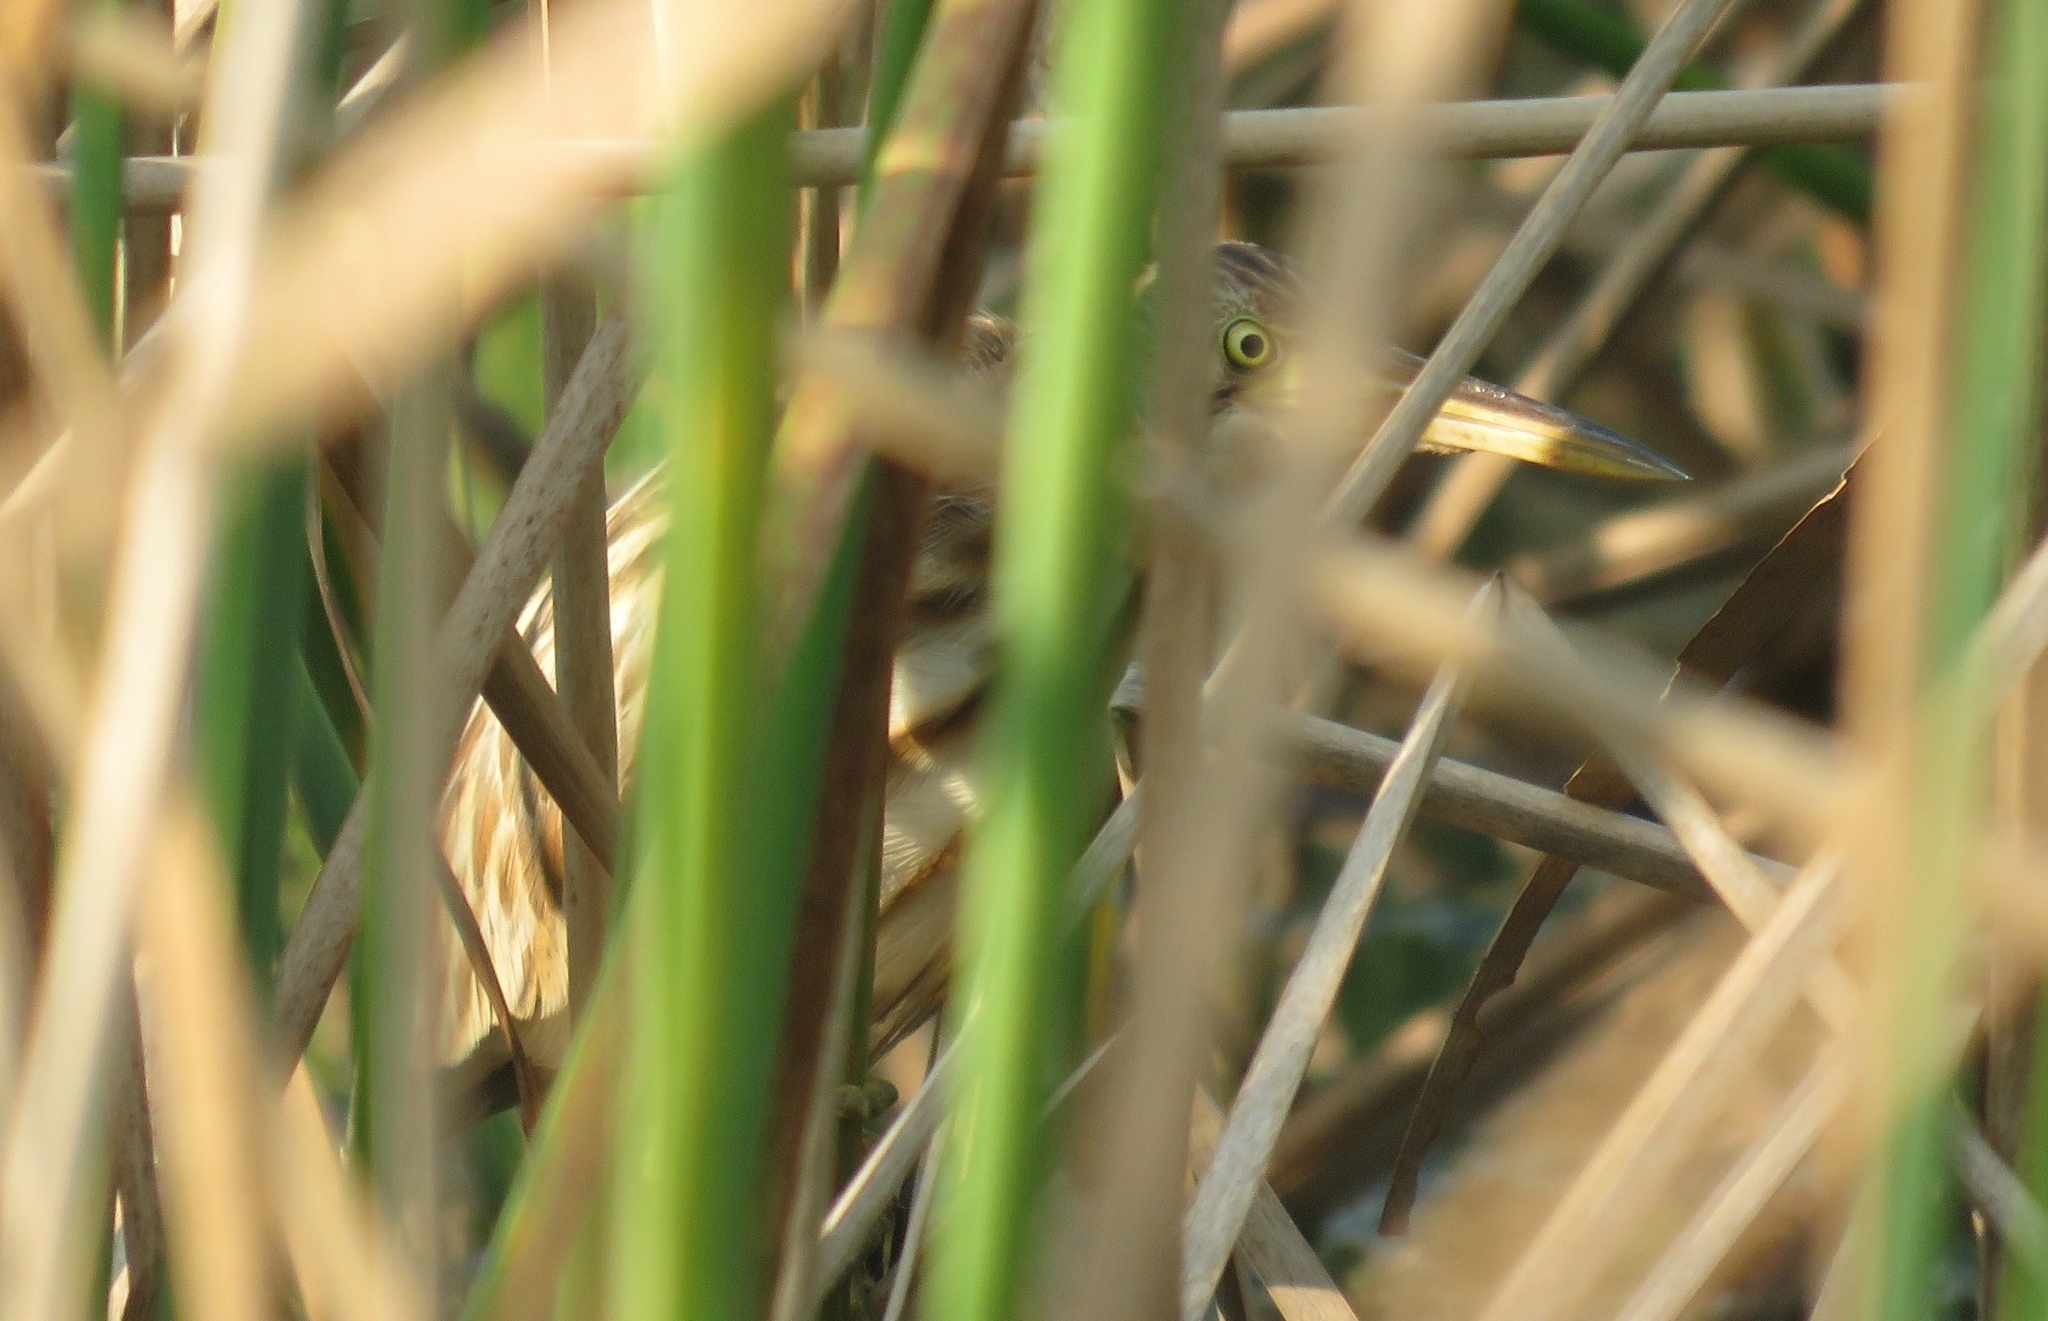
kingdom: Animalia
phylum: Chordata
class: Aves
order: Pelecaniformes
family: Ardeidae
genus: Ixobrychus
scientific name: Ixobrychus sinensis
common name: Yellow bittern
